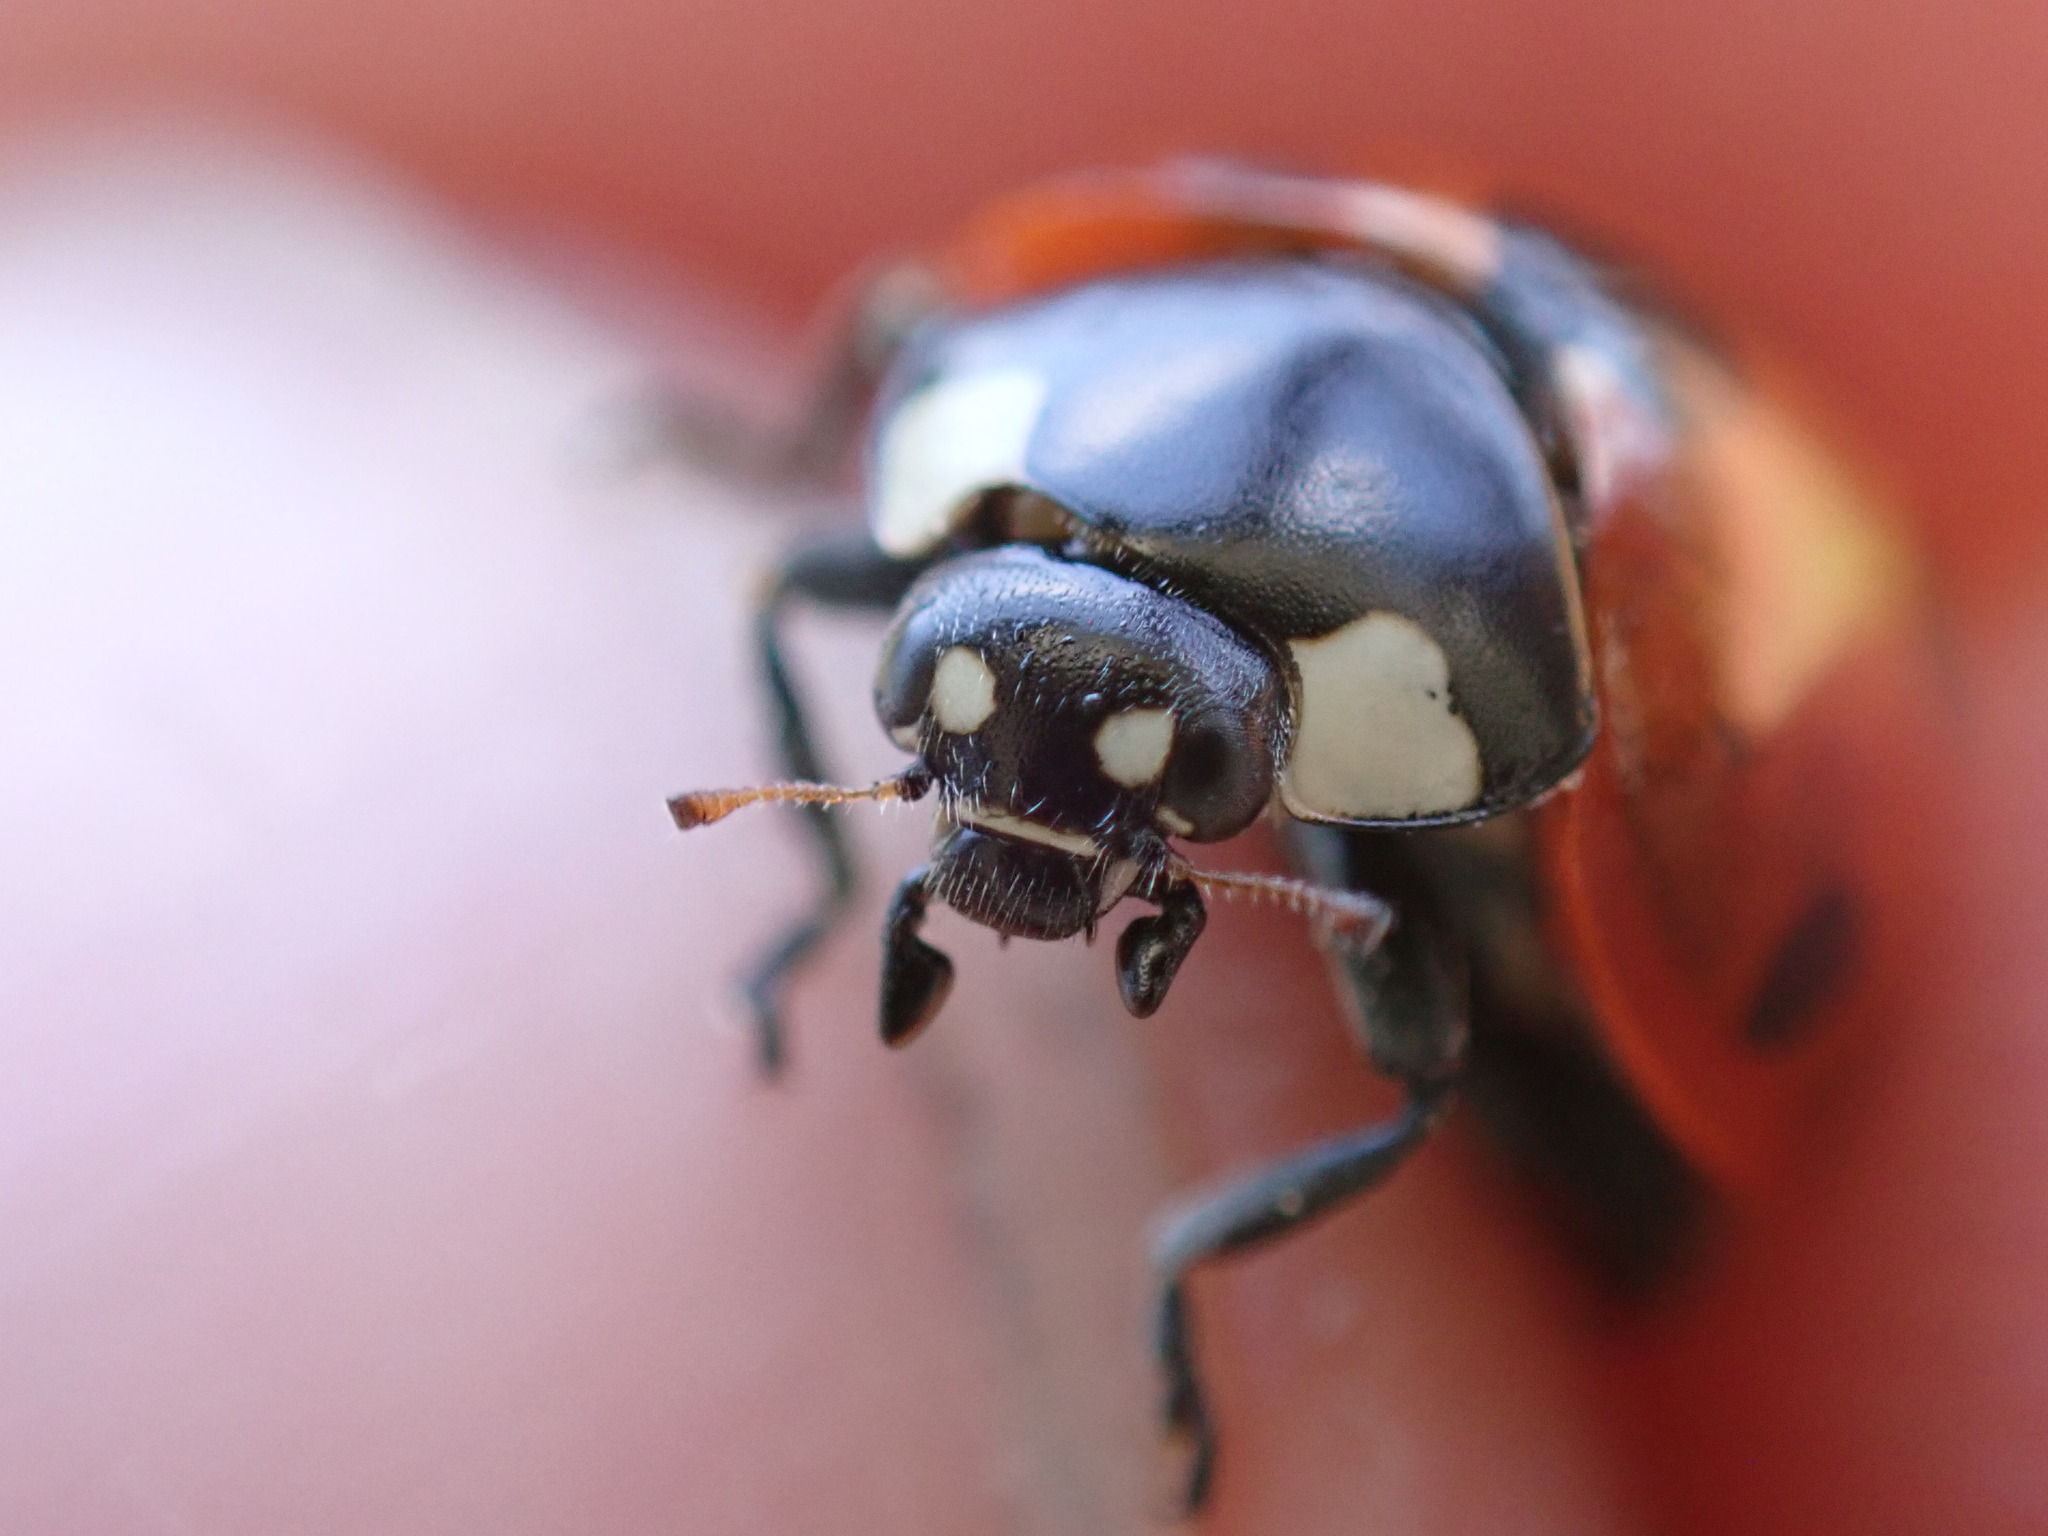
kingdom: Animalia
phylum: Arthropoda
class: Insecta
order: Coleoptera
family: Coccinellidae
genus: Coccinella
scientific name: Coccinella septempunctata
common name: Sevenspotted lady beetle
